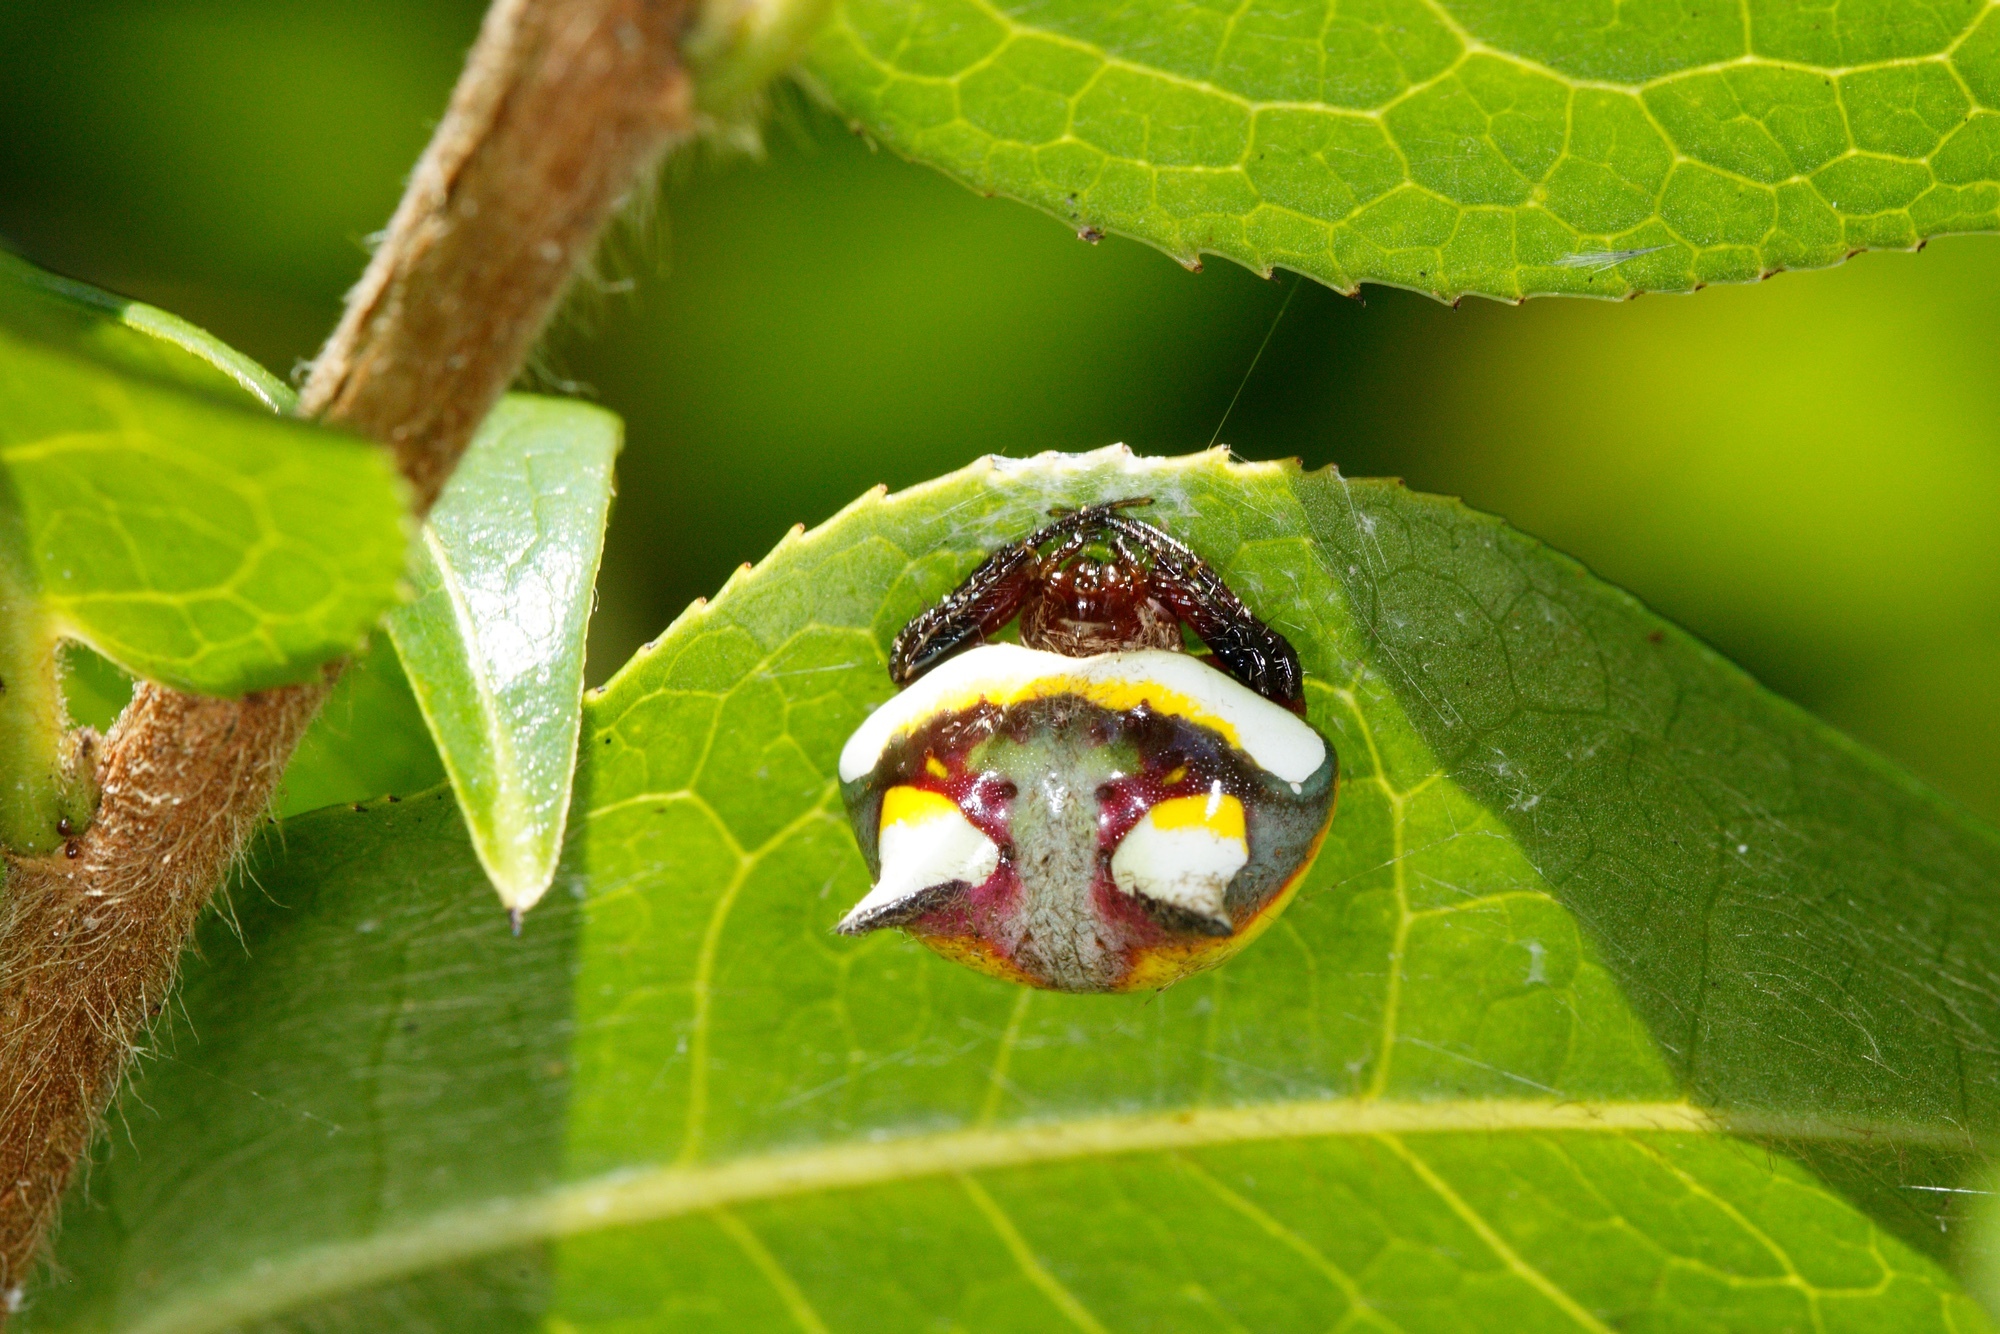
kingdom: Animalia
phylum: Arthropoda
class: Arachnida
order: Araneae
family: Araneidae
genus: Poecilopachys
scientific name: Poecilopachys australasia
